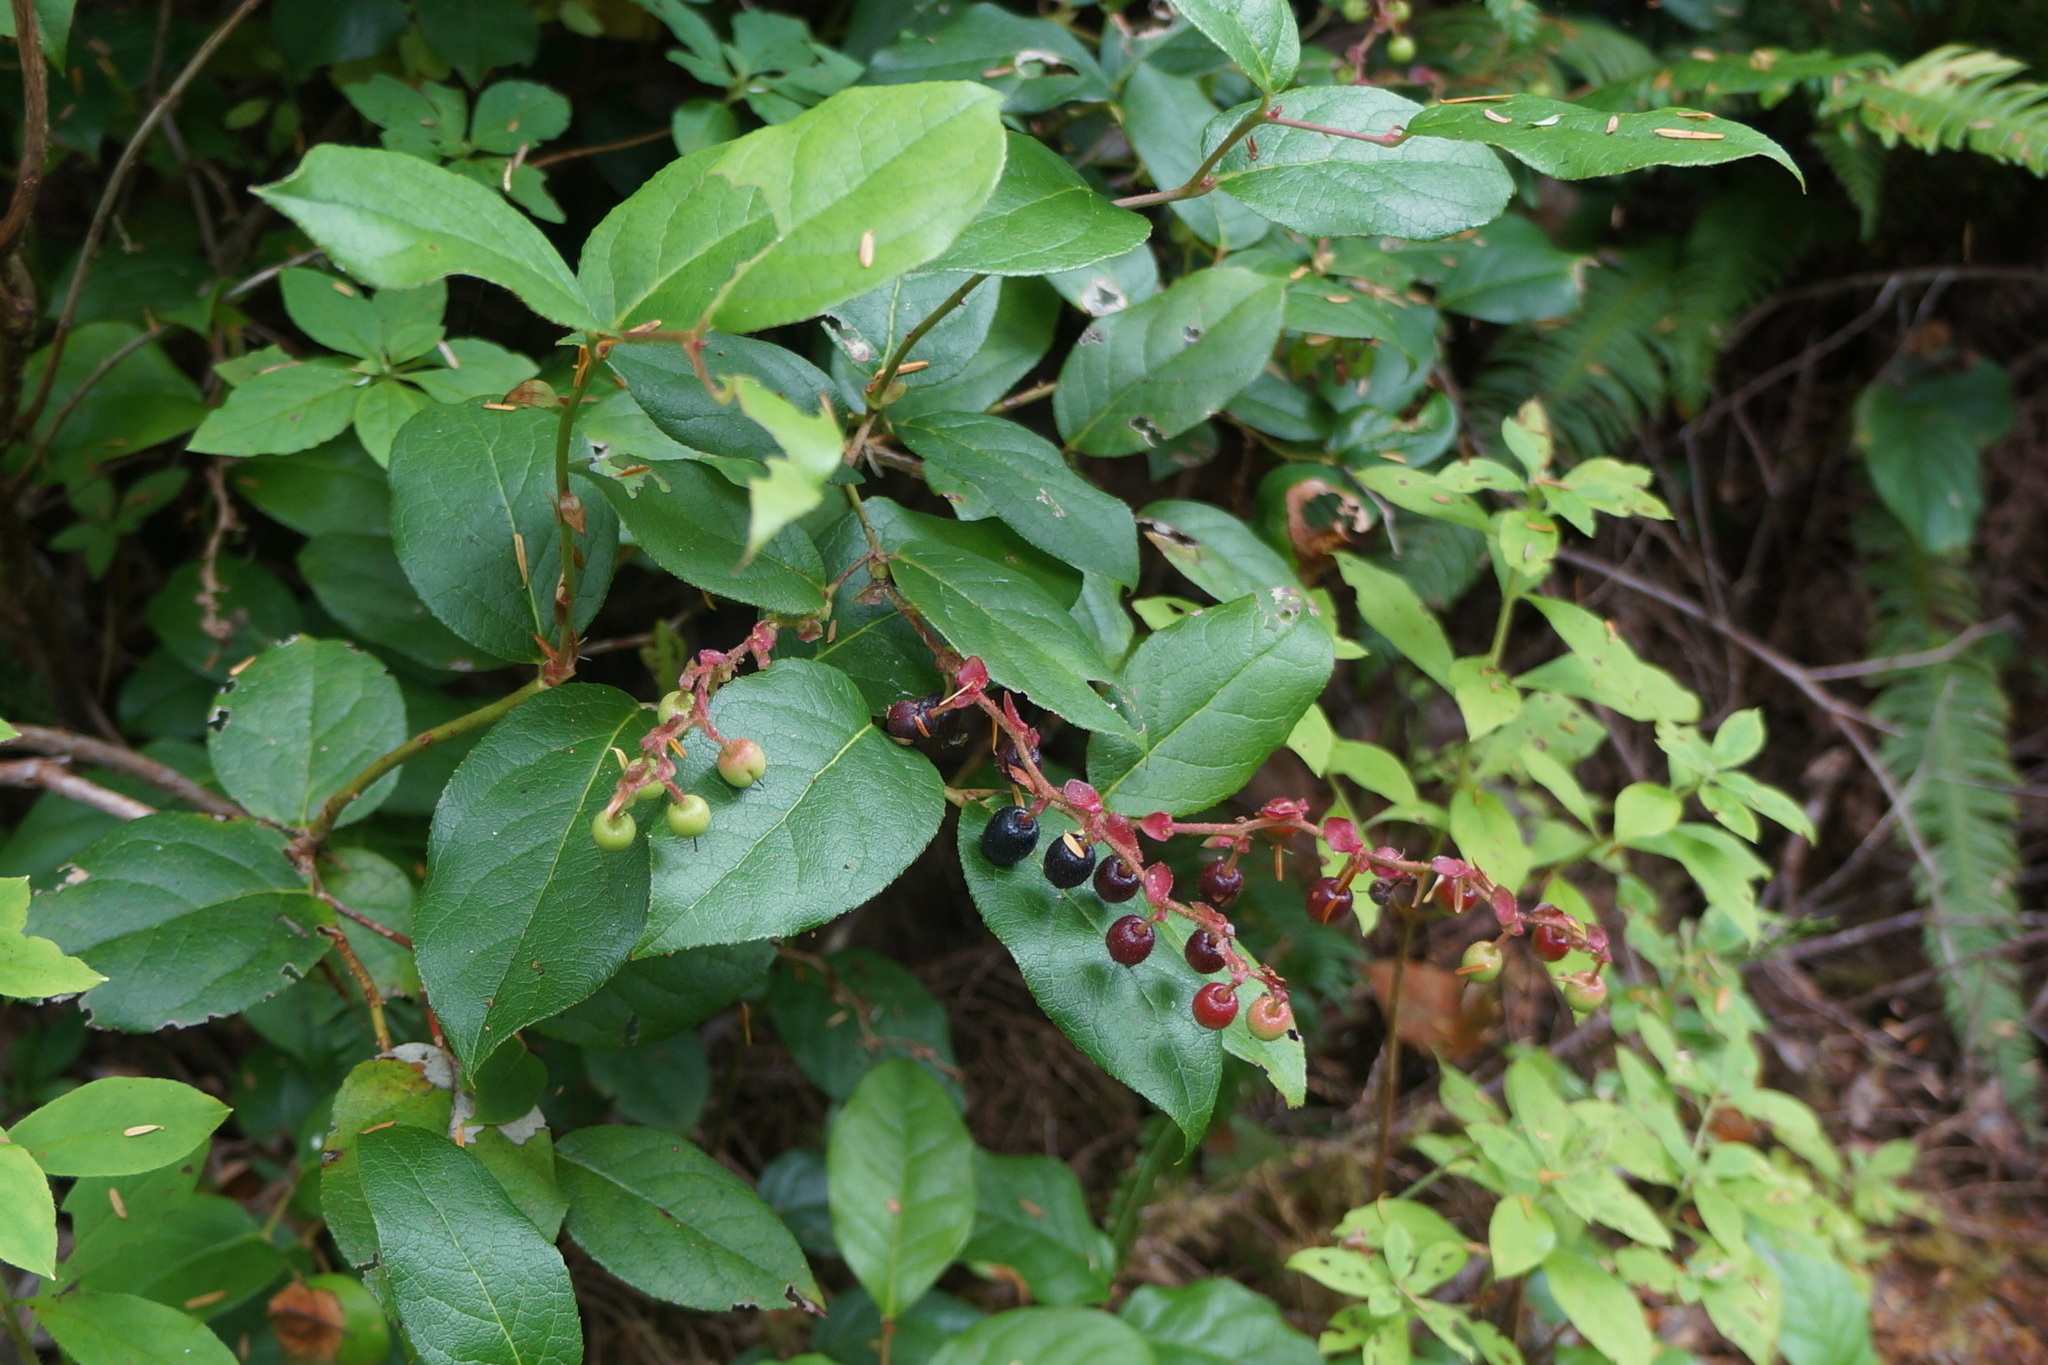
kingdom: Plantae
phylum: Tracheophyta
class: Magnoliopsida
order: Ericales
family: Ericaceae
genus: Gaultheria
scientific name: Gaultheria shallon
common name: Shallon
